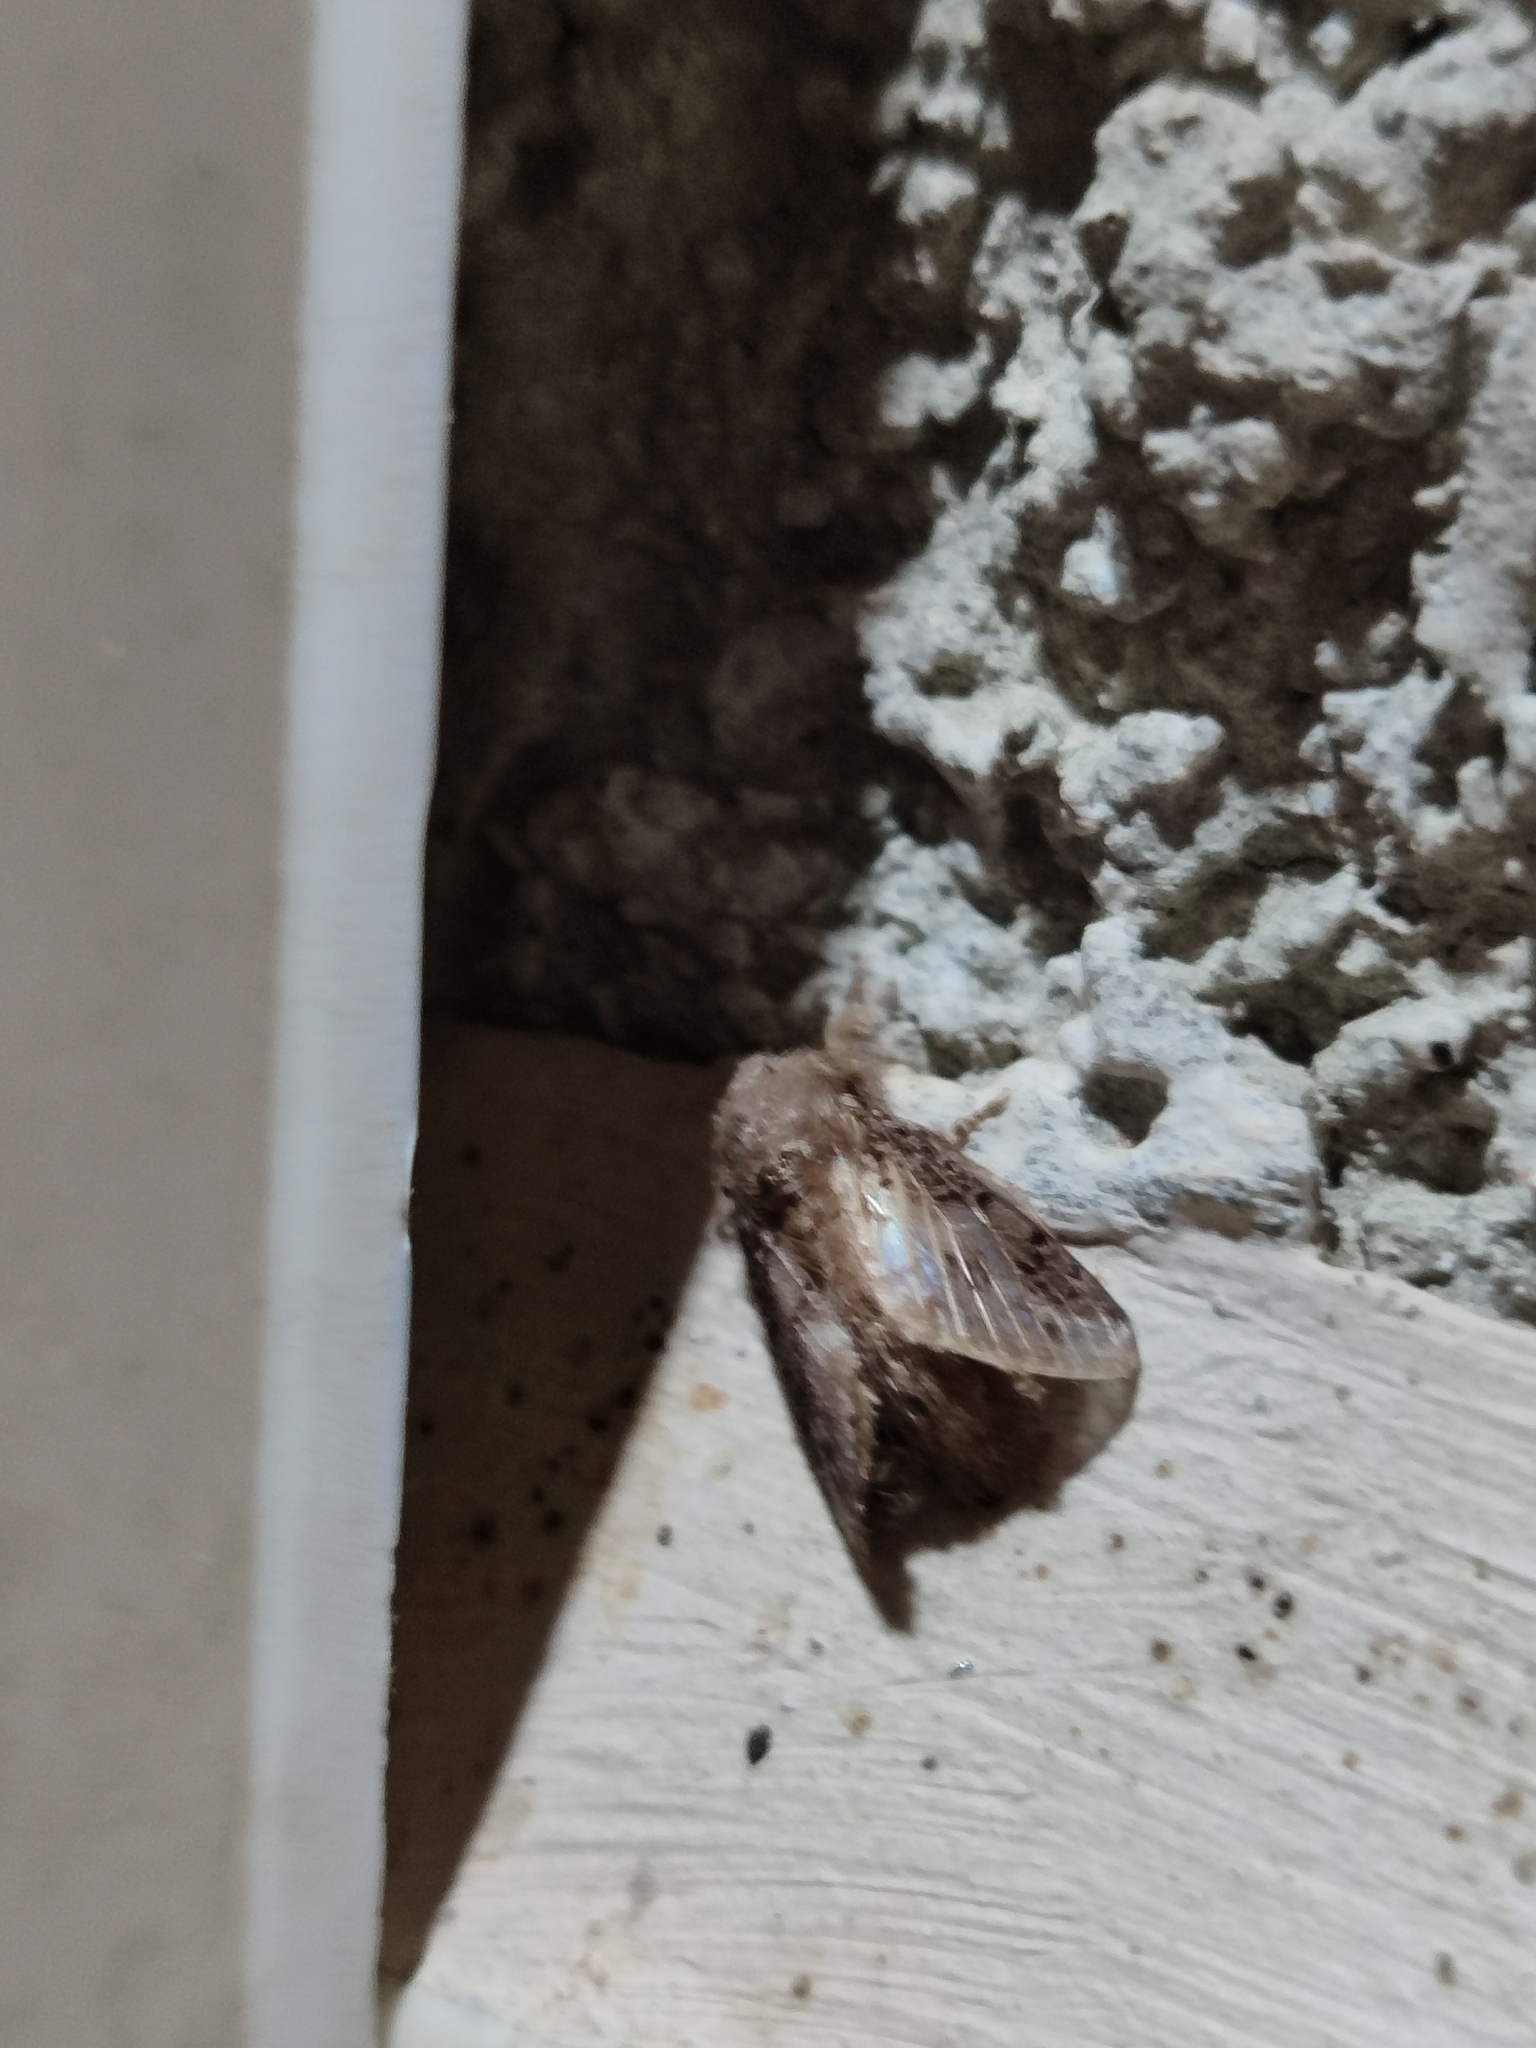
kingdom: Animalia
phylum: Arthropoda
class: Insecta
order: Lepidoptera
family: Lasiocampidae
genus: Euglyphis
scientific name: Euglyphis zurcheri
